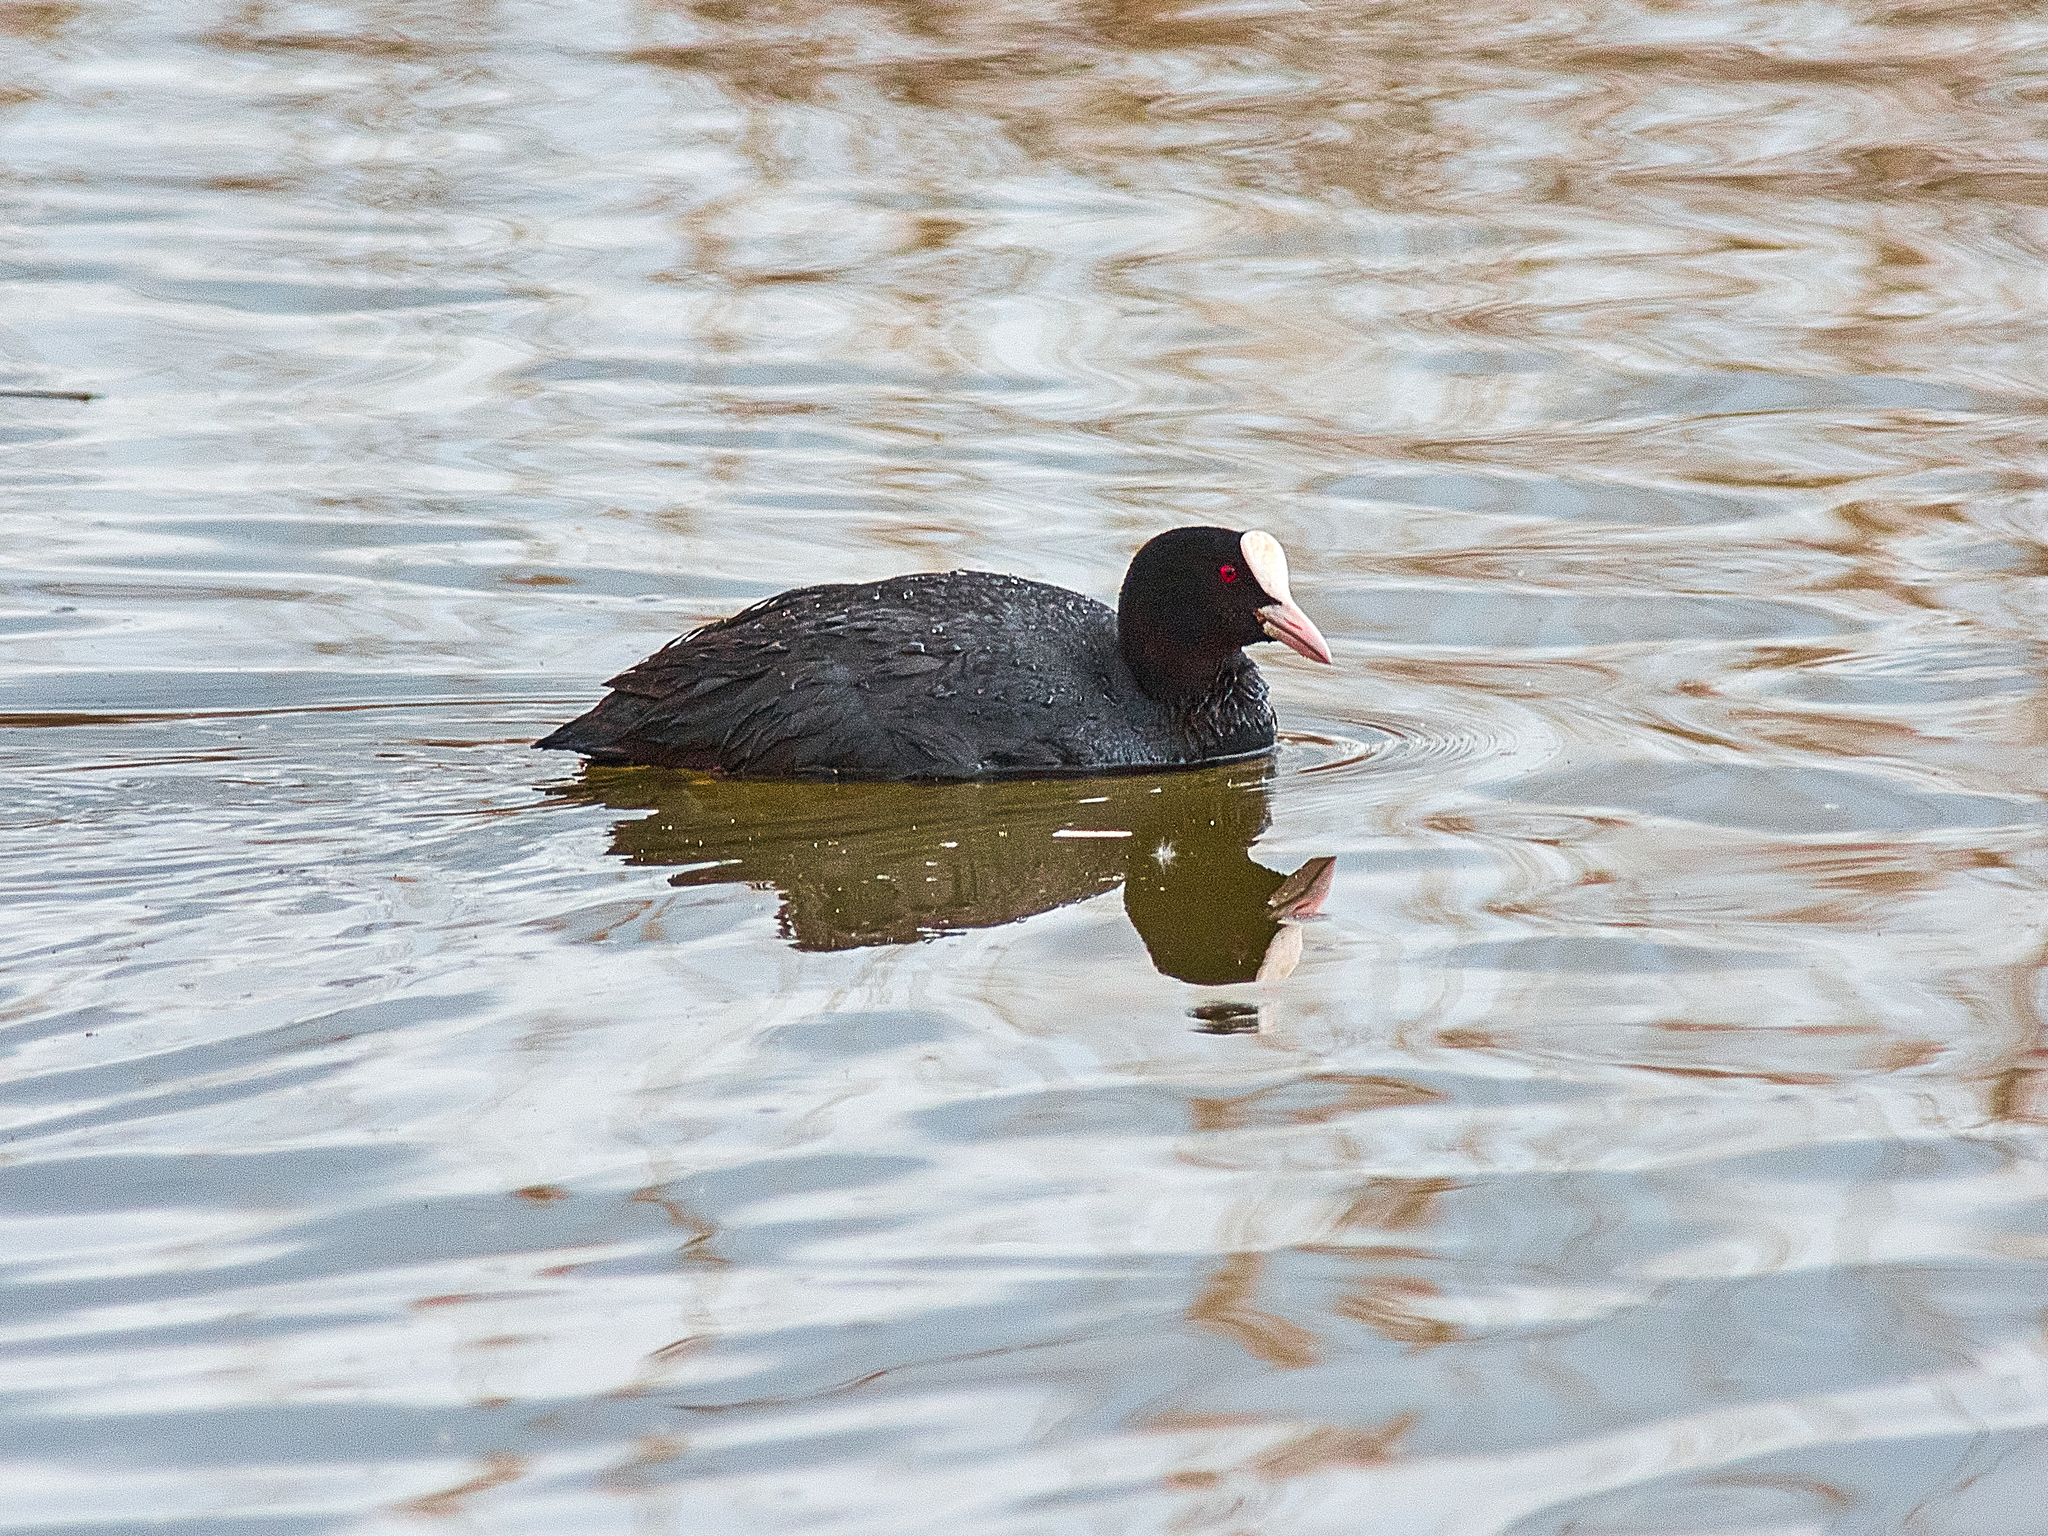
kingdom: Animalia
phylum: Chordata
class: Aves
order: Gruiformes
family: Rallidae
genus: Fulica
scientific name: Fulica atra
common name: Eurasian coot
